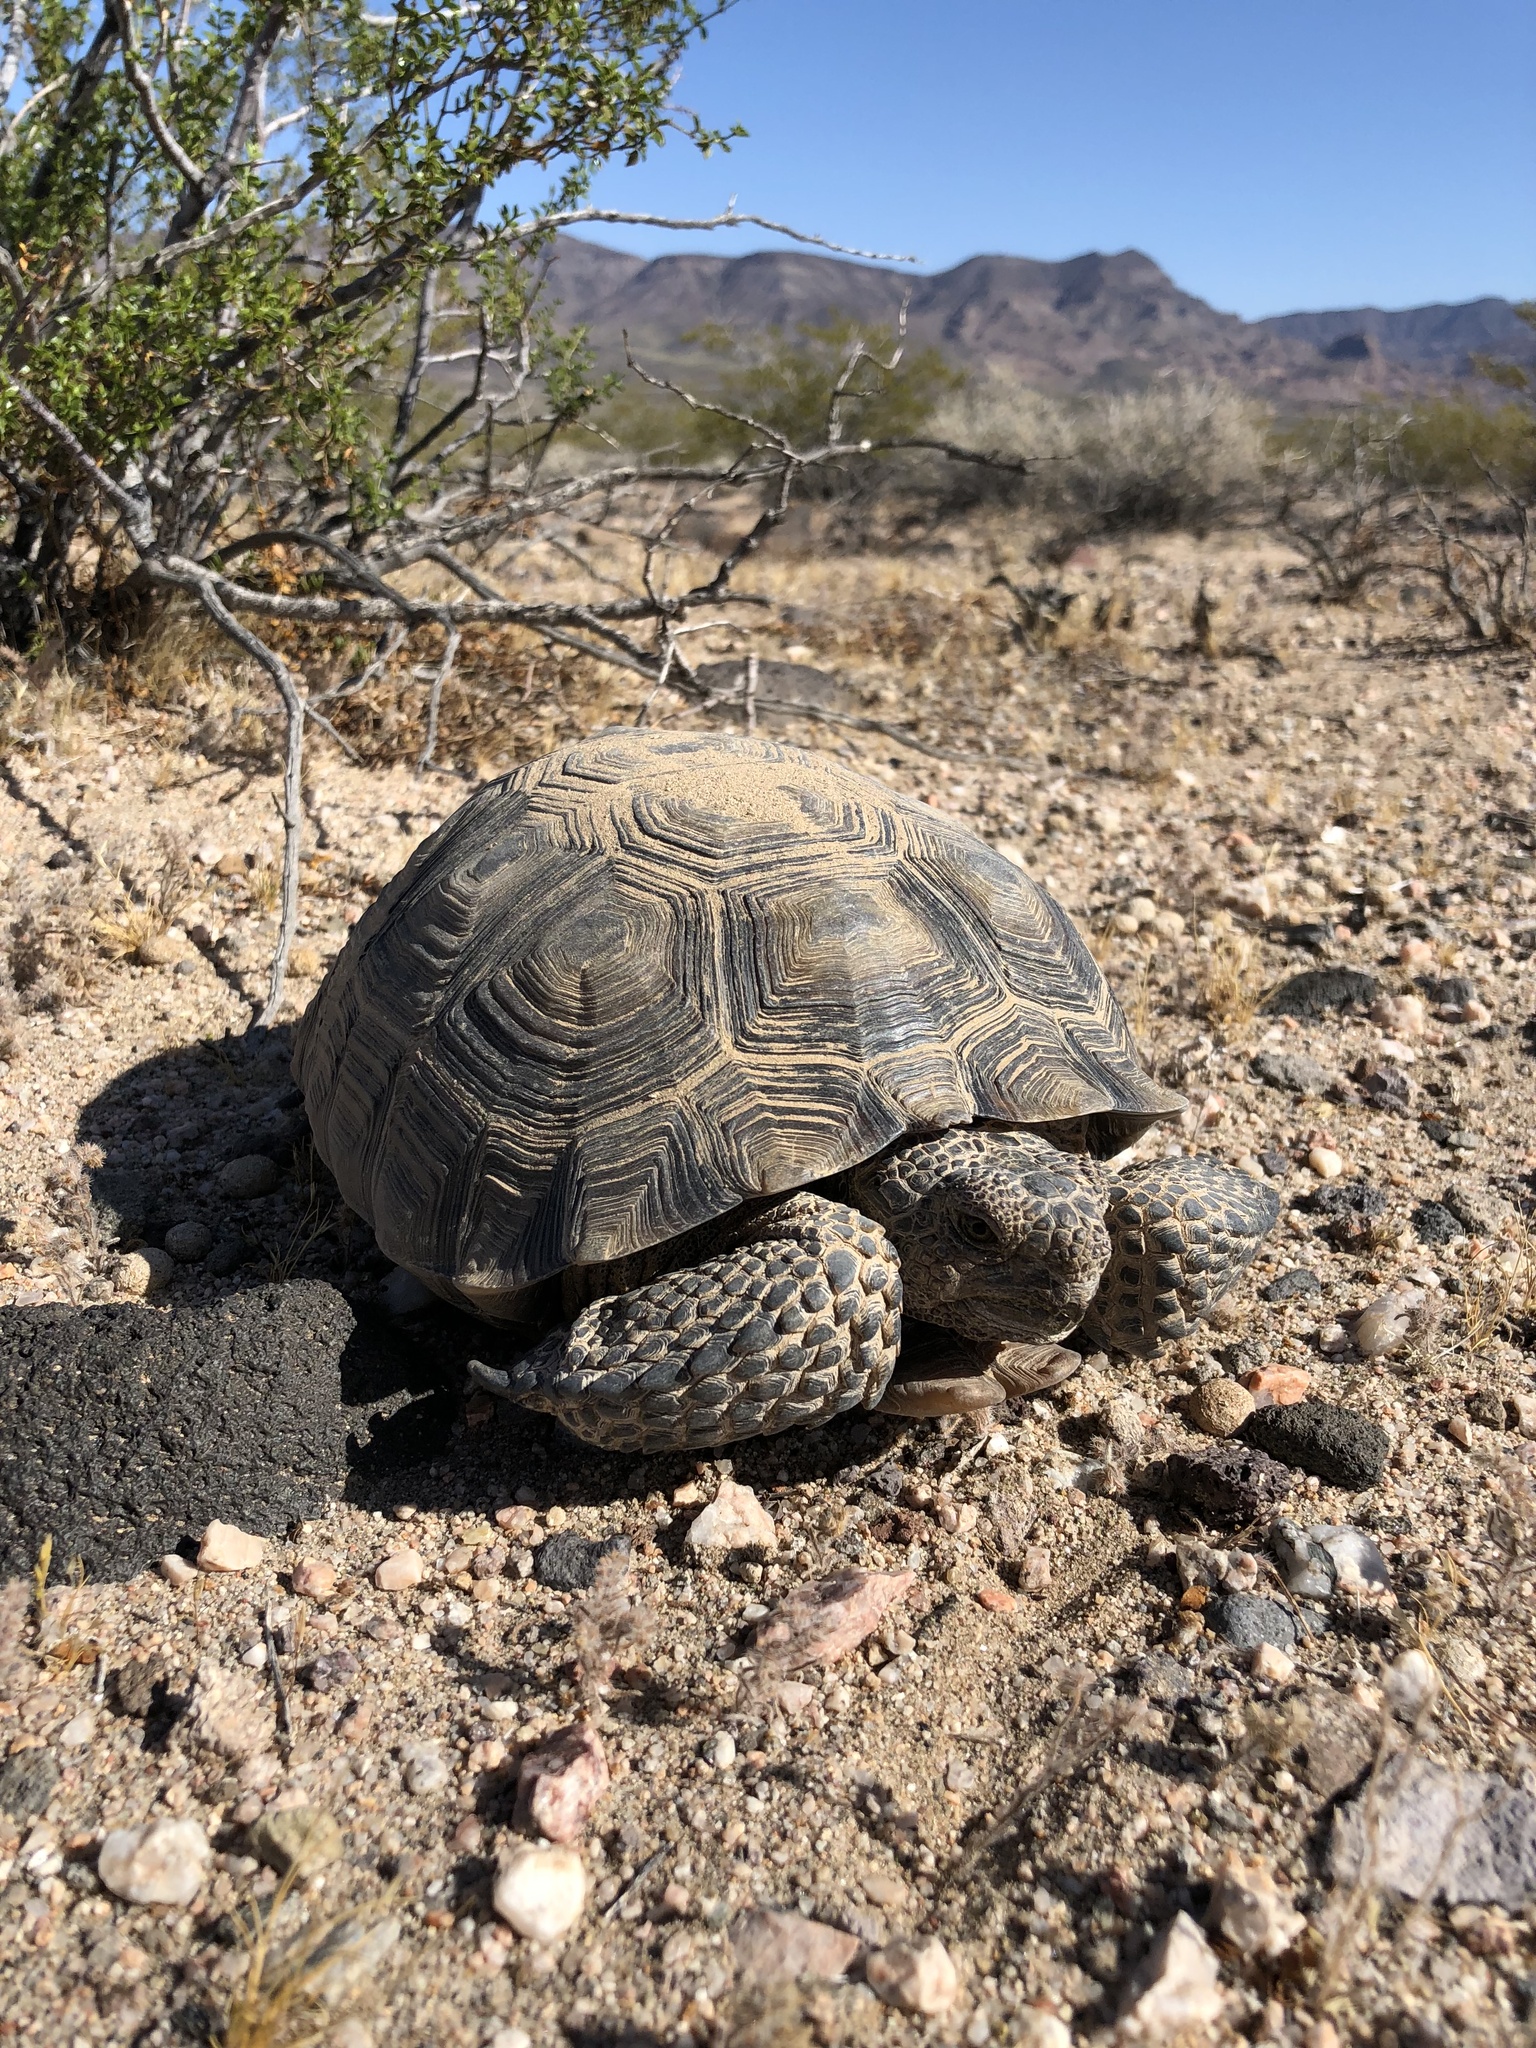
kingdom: Animalia
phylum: Chordata
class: Testudines
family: Testudinidae
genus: Gopherus
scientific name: Gopherus agassizii
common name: Mojave desert tortoise
